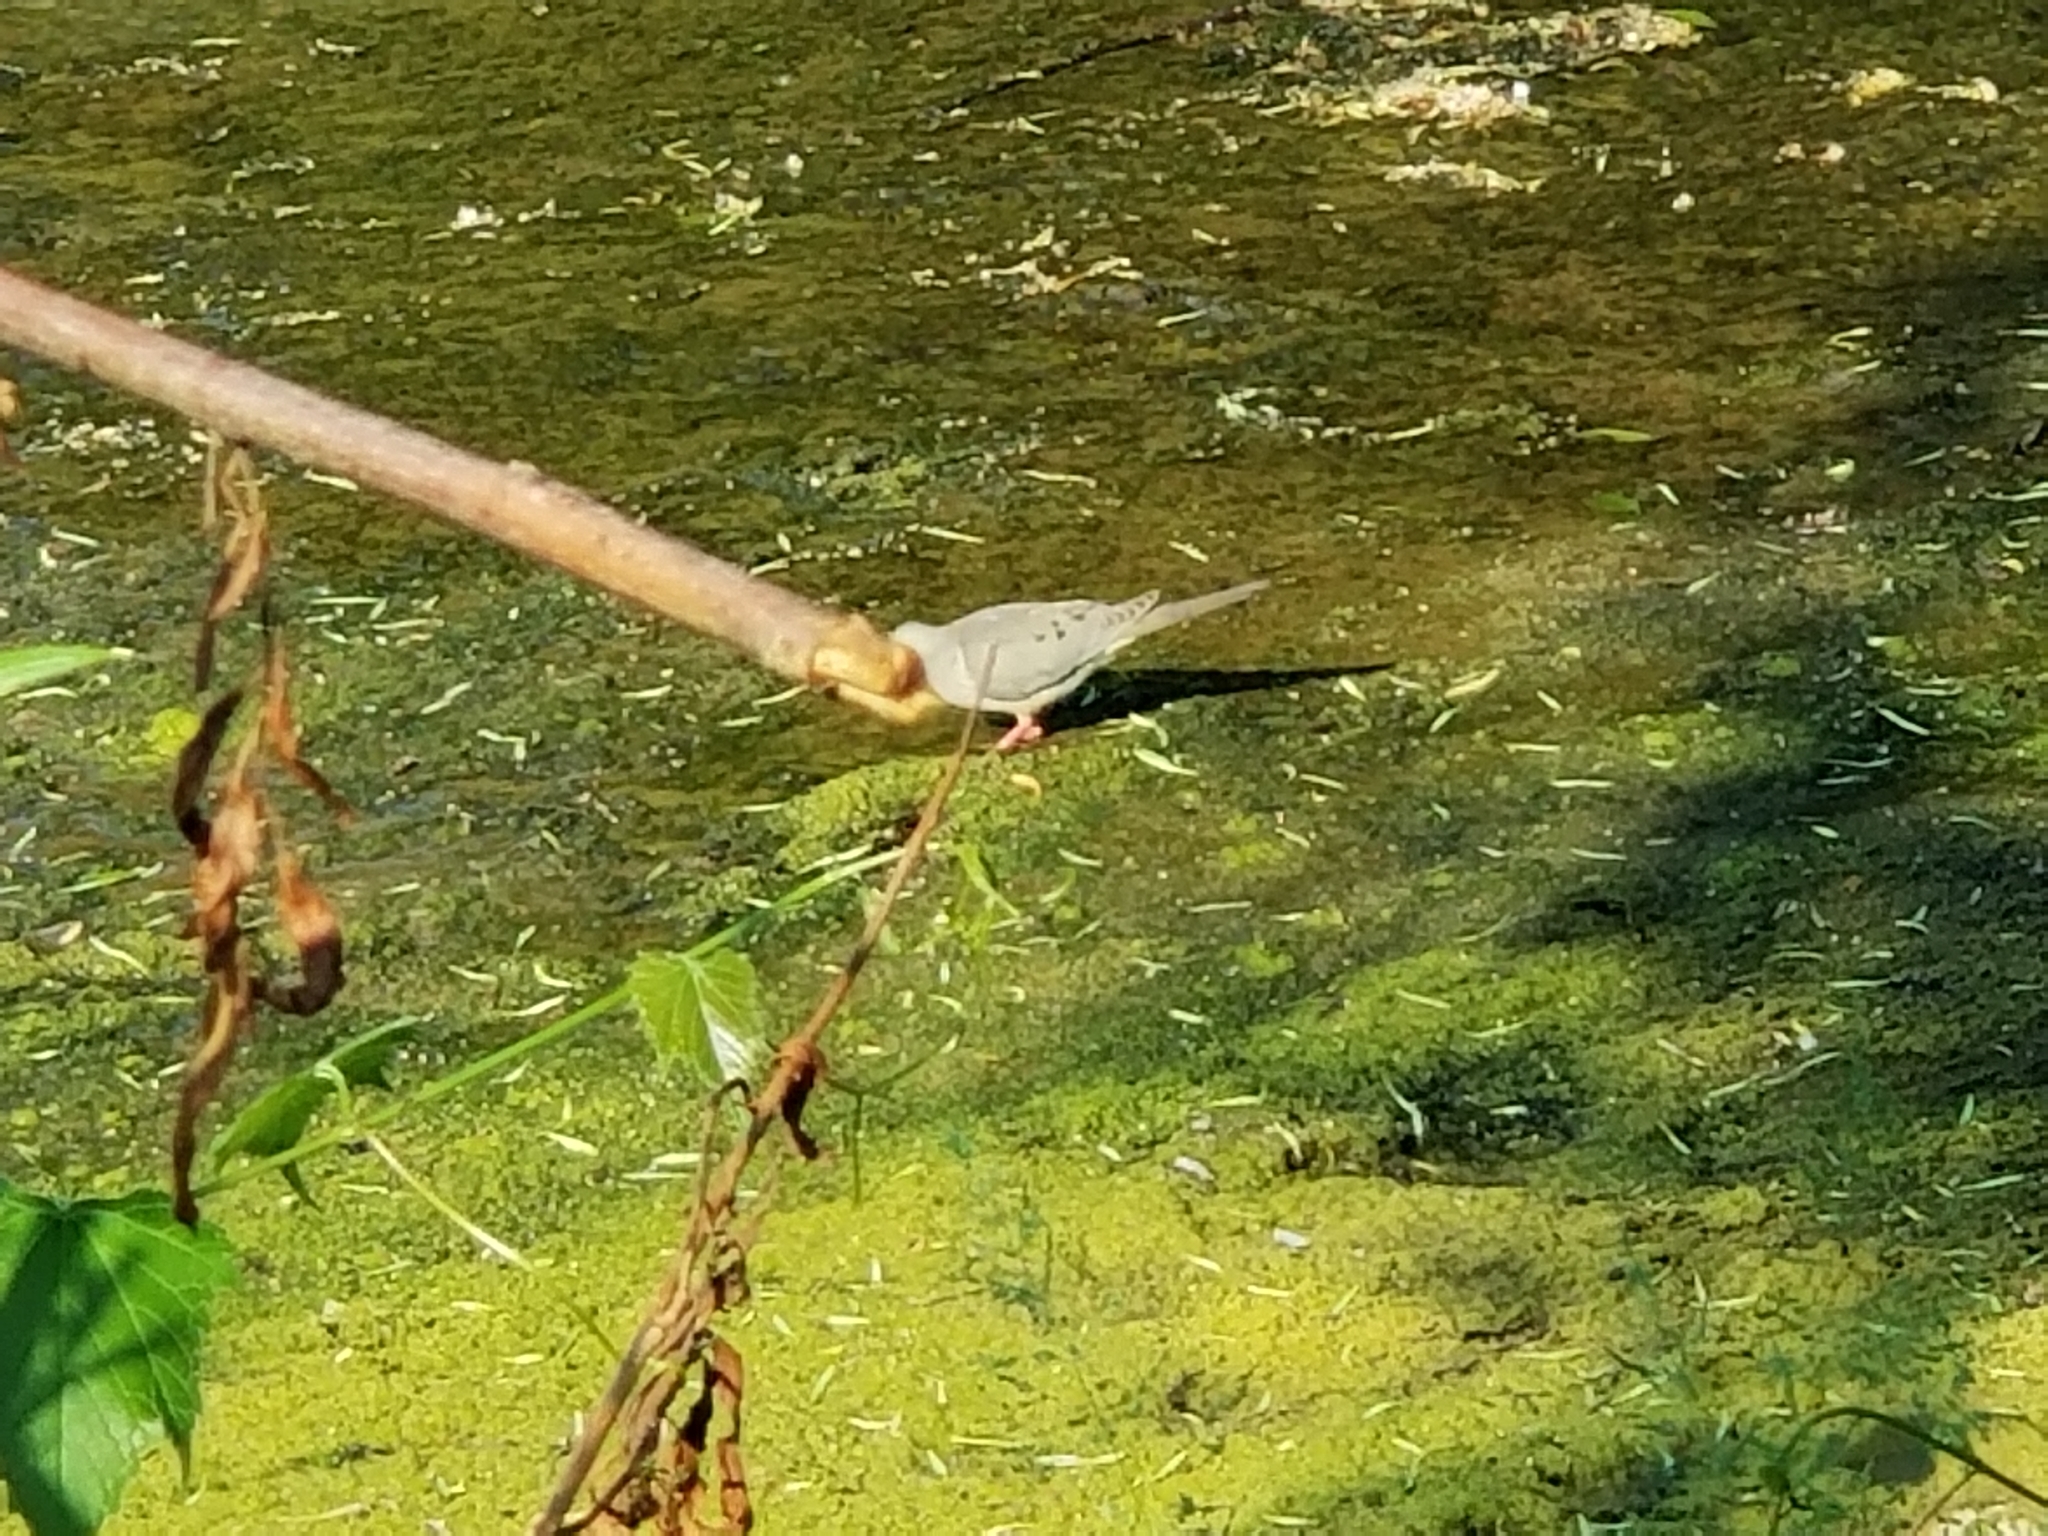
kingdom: Animalia
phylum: Chordata
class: Aves
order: Columbiformes
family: Columbidae
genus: Zenaida
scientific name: Zenaida macroura
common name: Mourning dove
